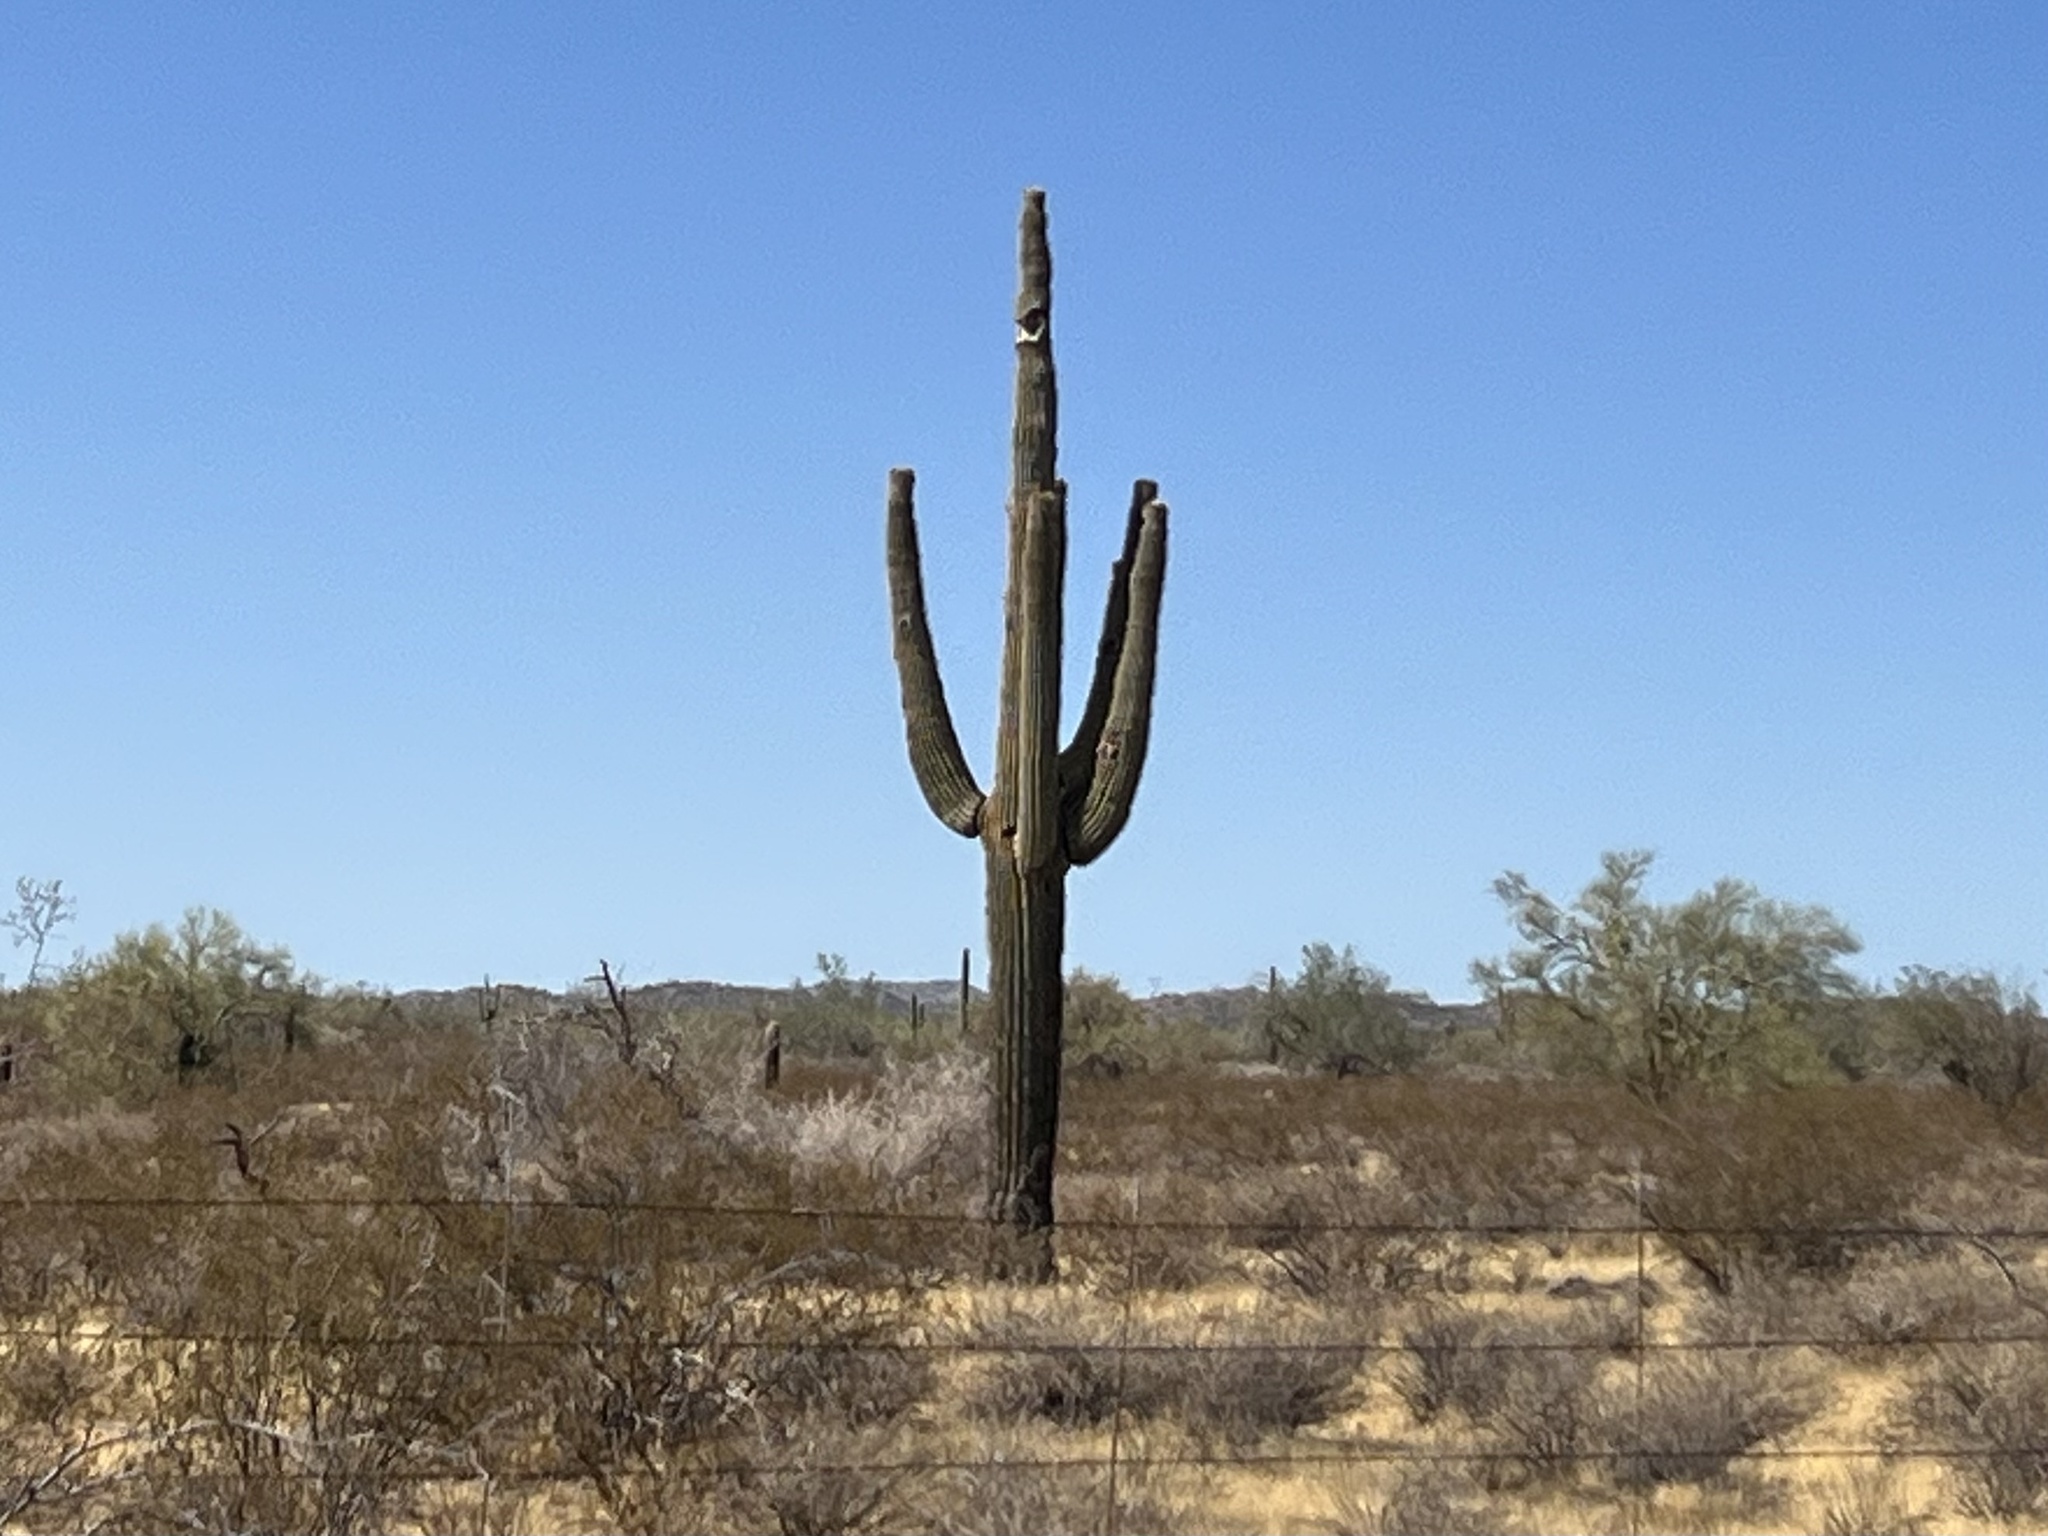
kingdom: Plantae
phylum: Tracheophyta
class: Magnoliopsida
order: Caryophyllales
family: Cactaceae
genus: Carnegiea
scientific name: Carnegiea gigantea
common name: Saguaro
